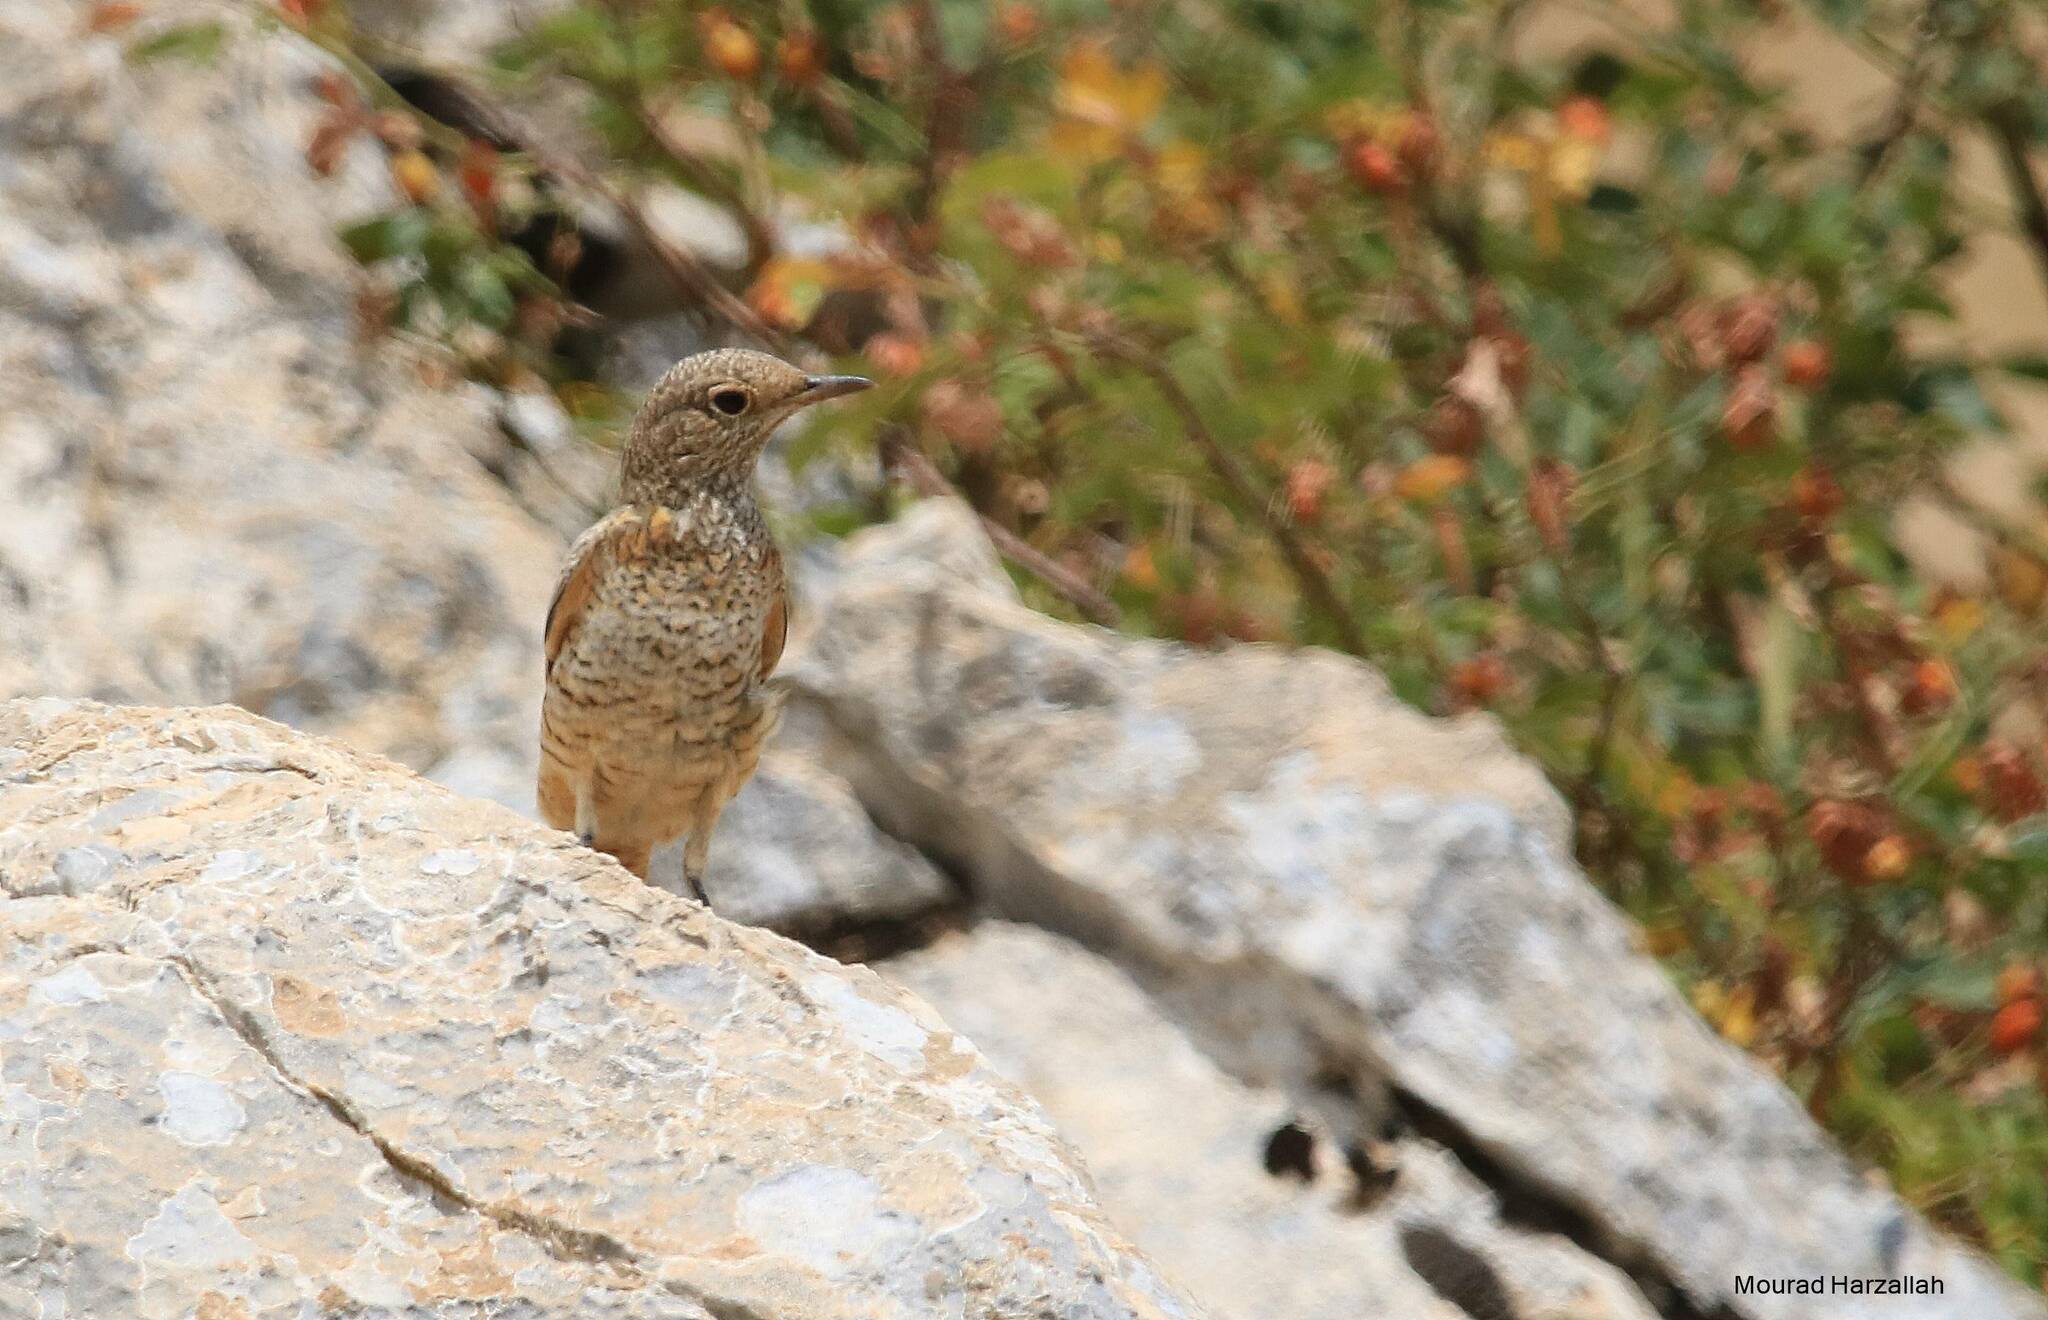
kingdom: Animalia
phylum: Chordata
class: Aves
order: Passeriformes
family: Muscicapidae
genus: Monticola
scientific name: Monticola saxatilis
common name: Rufous-tailed rock thrush
